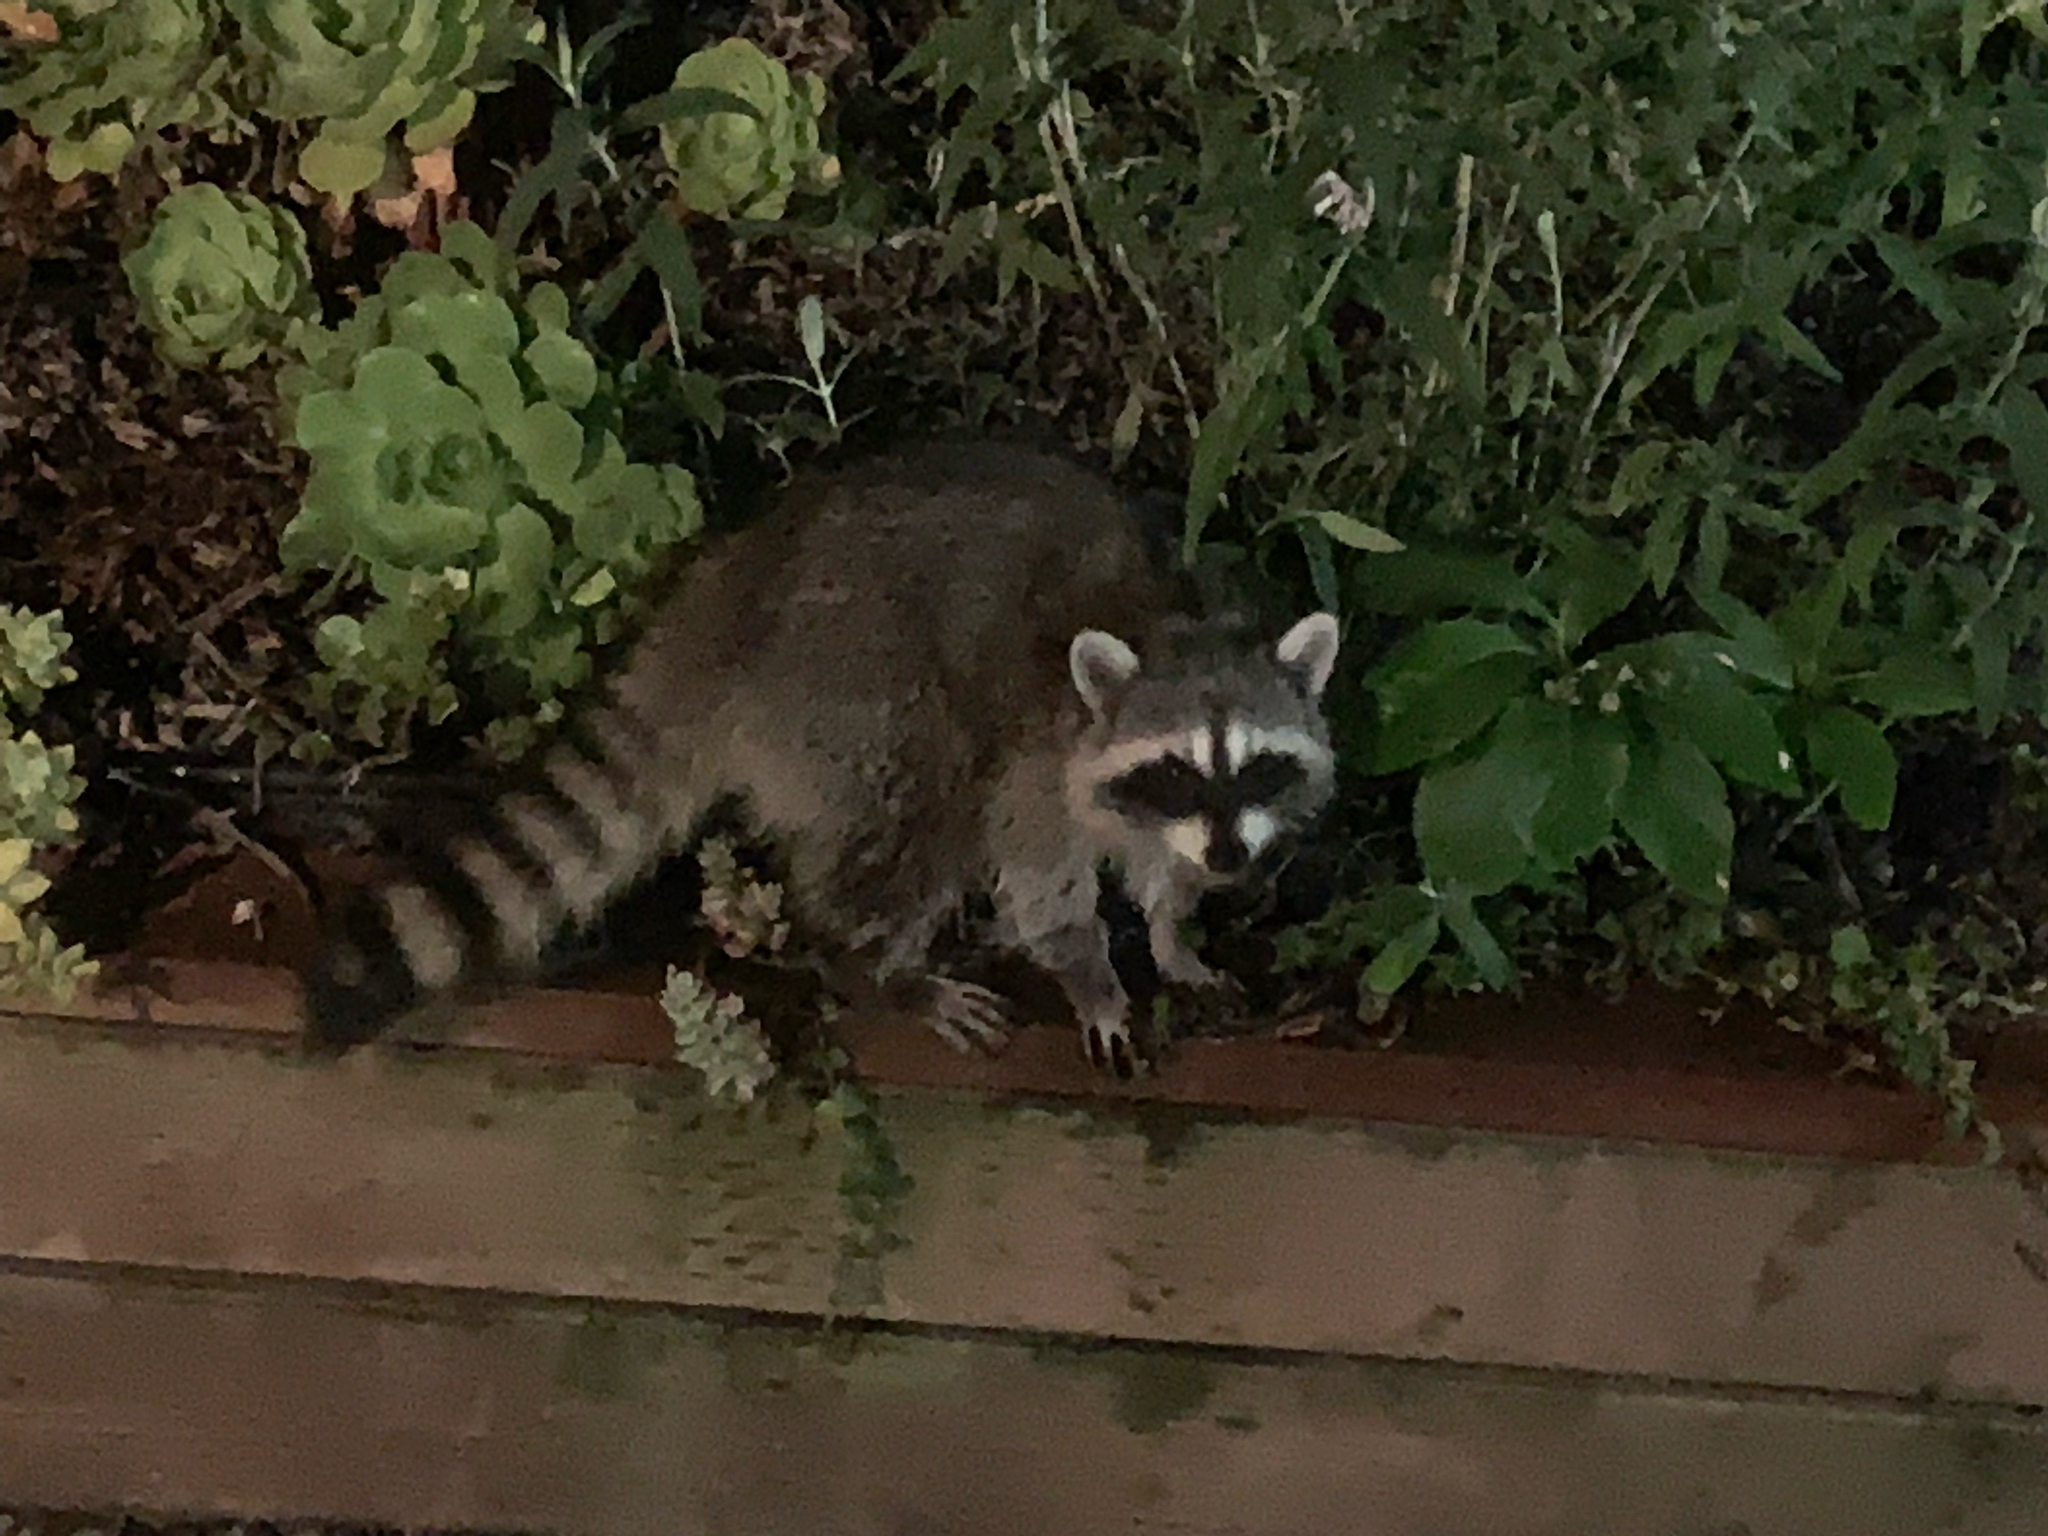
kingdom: Animalia
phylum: Chordata
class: Mammalia
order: Carnivora
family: Procyonidae
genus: Procyon
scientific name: Procyon lotor
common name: Raccoon
